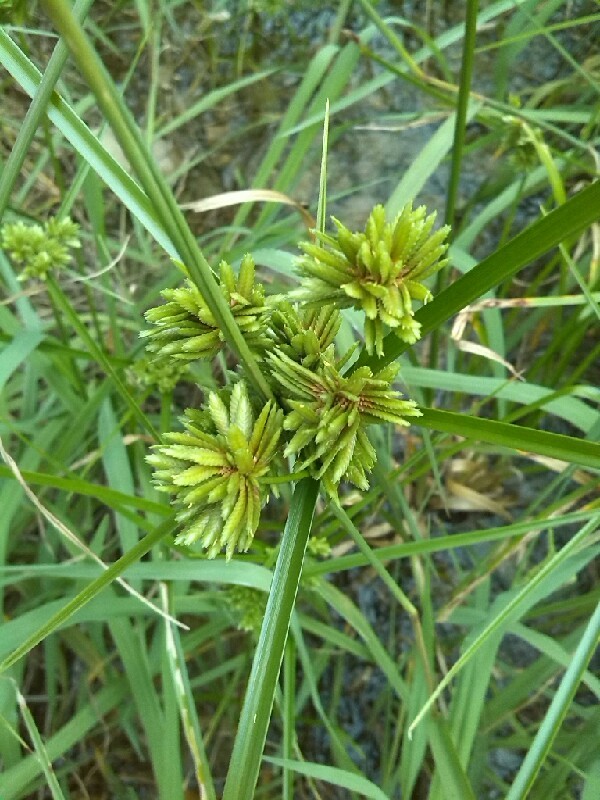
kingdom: Plantae
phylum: Tracheophyta
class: Liliopsida
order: Poales
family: Cyperaceae
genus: Cyperus
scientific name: Cyperus eragrostis
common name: Tall flatsedge
